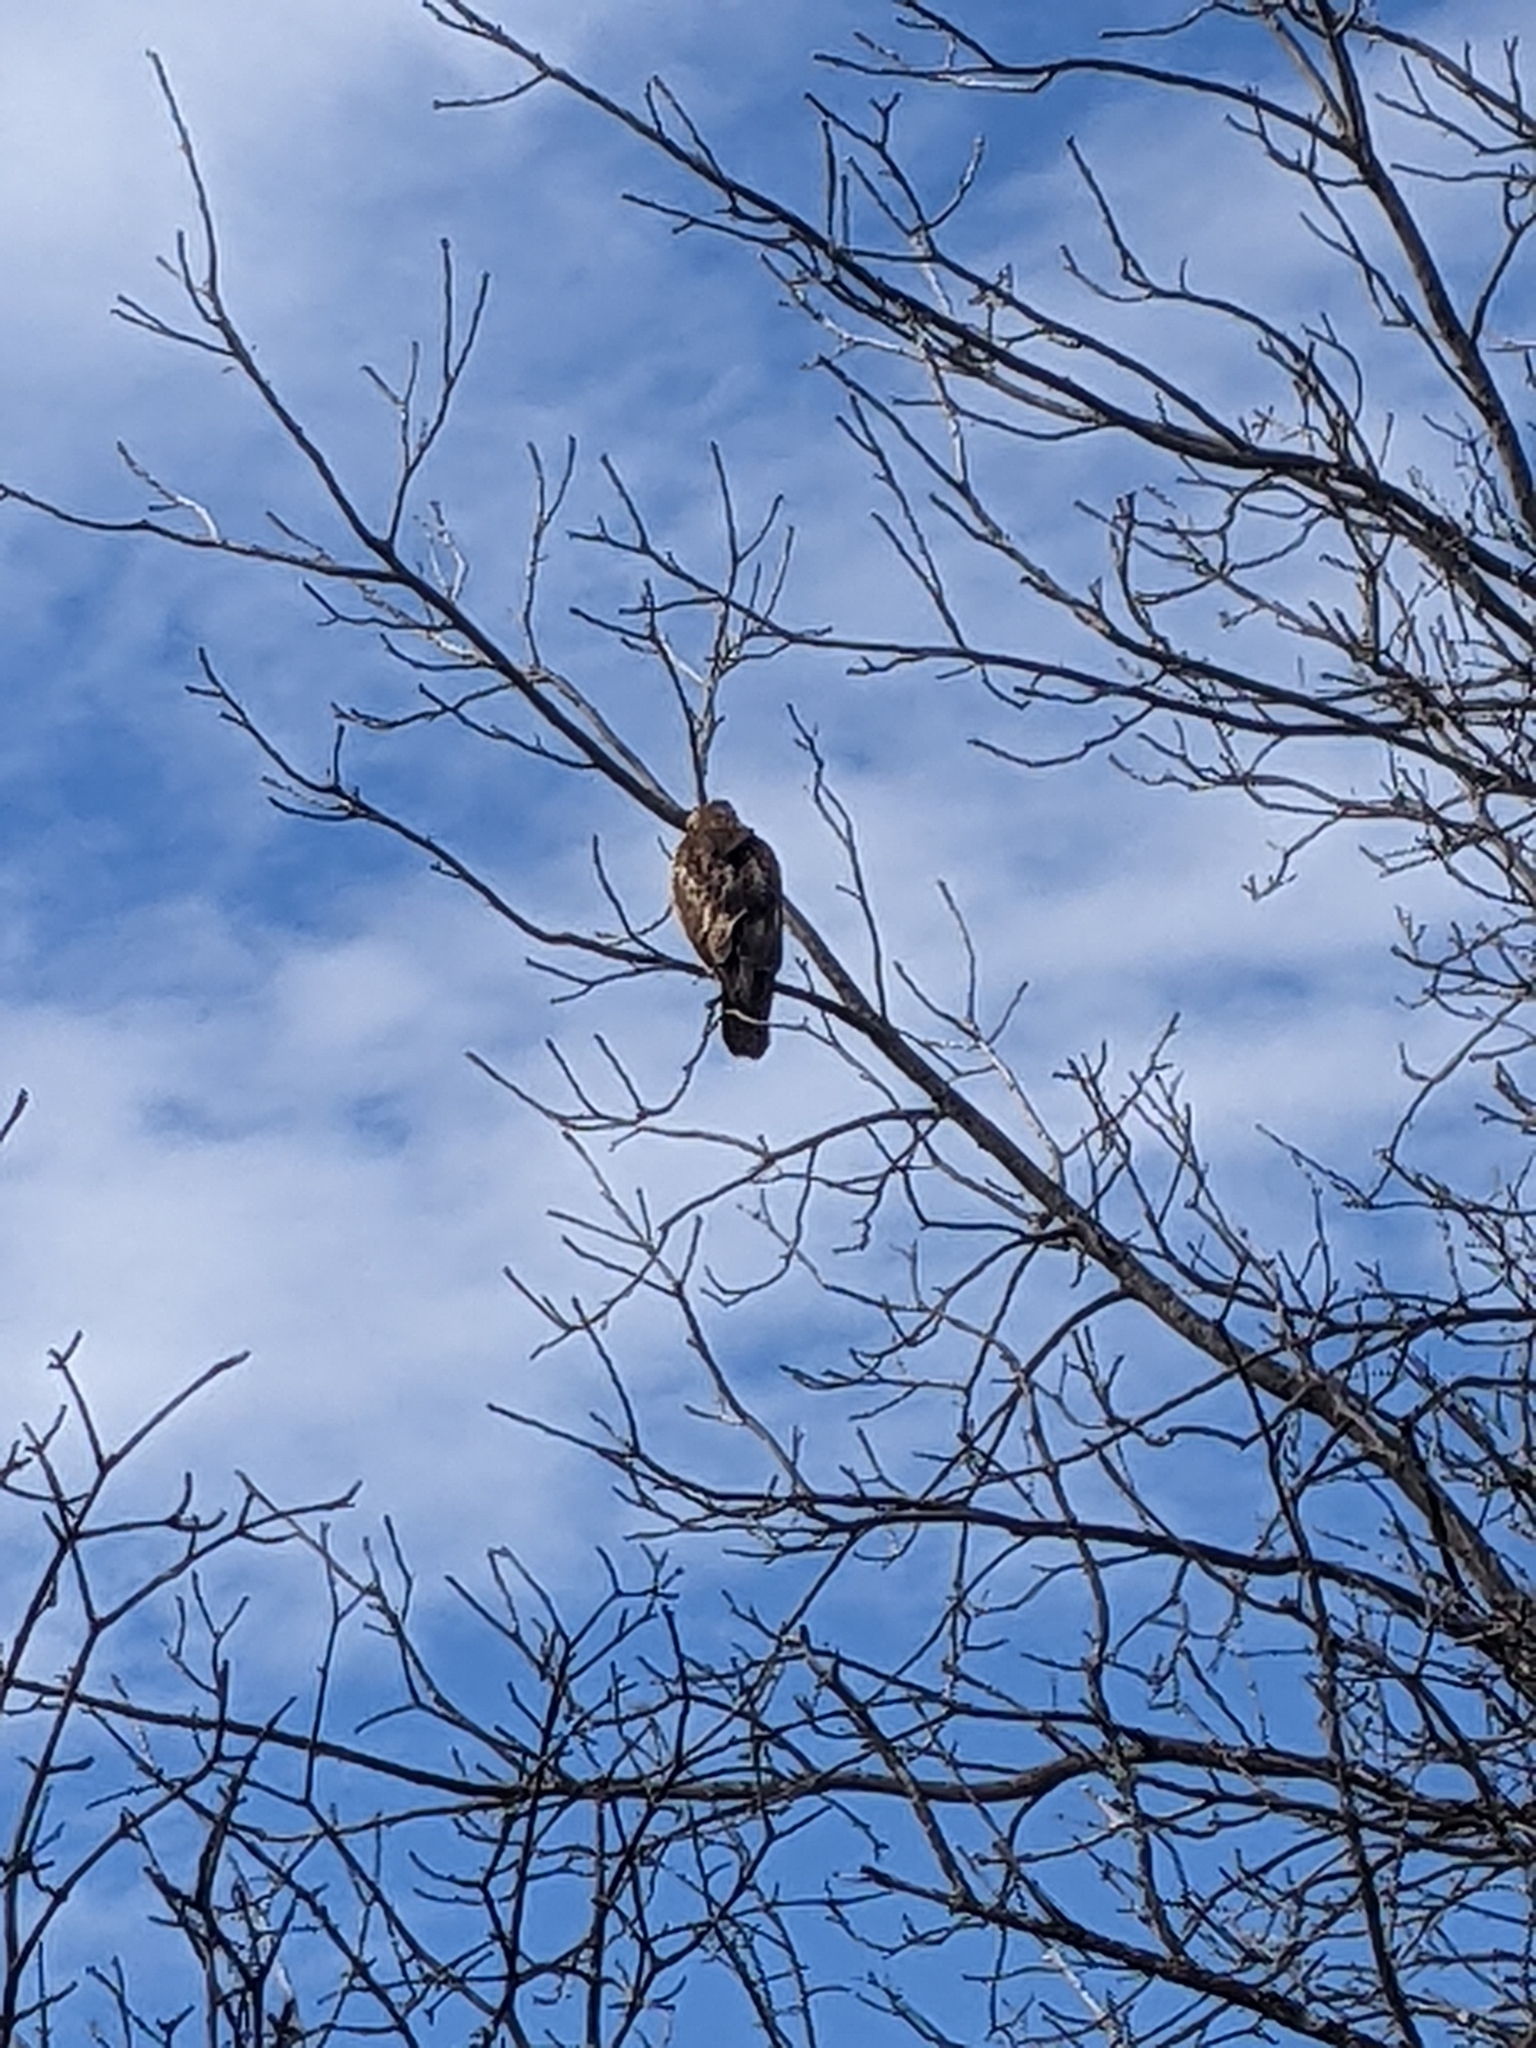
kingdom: Animalia
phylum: Chordata
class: Aves
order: Accipitriformes
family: Accipitridae
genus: Buteo
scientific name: Buteo jamaicensis
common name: Red-tailed hawk
